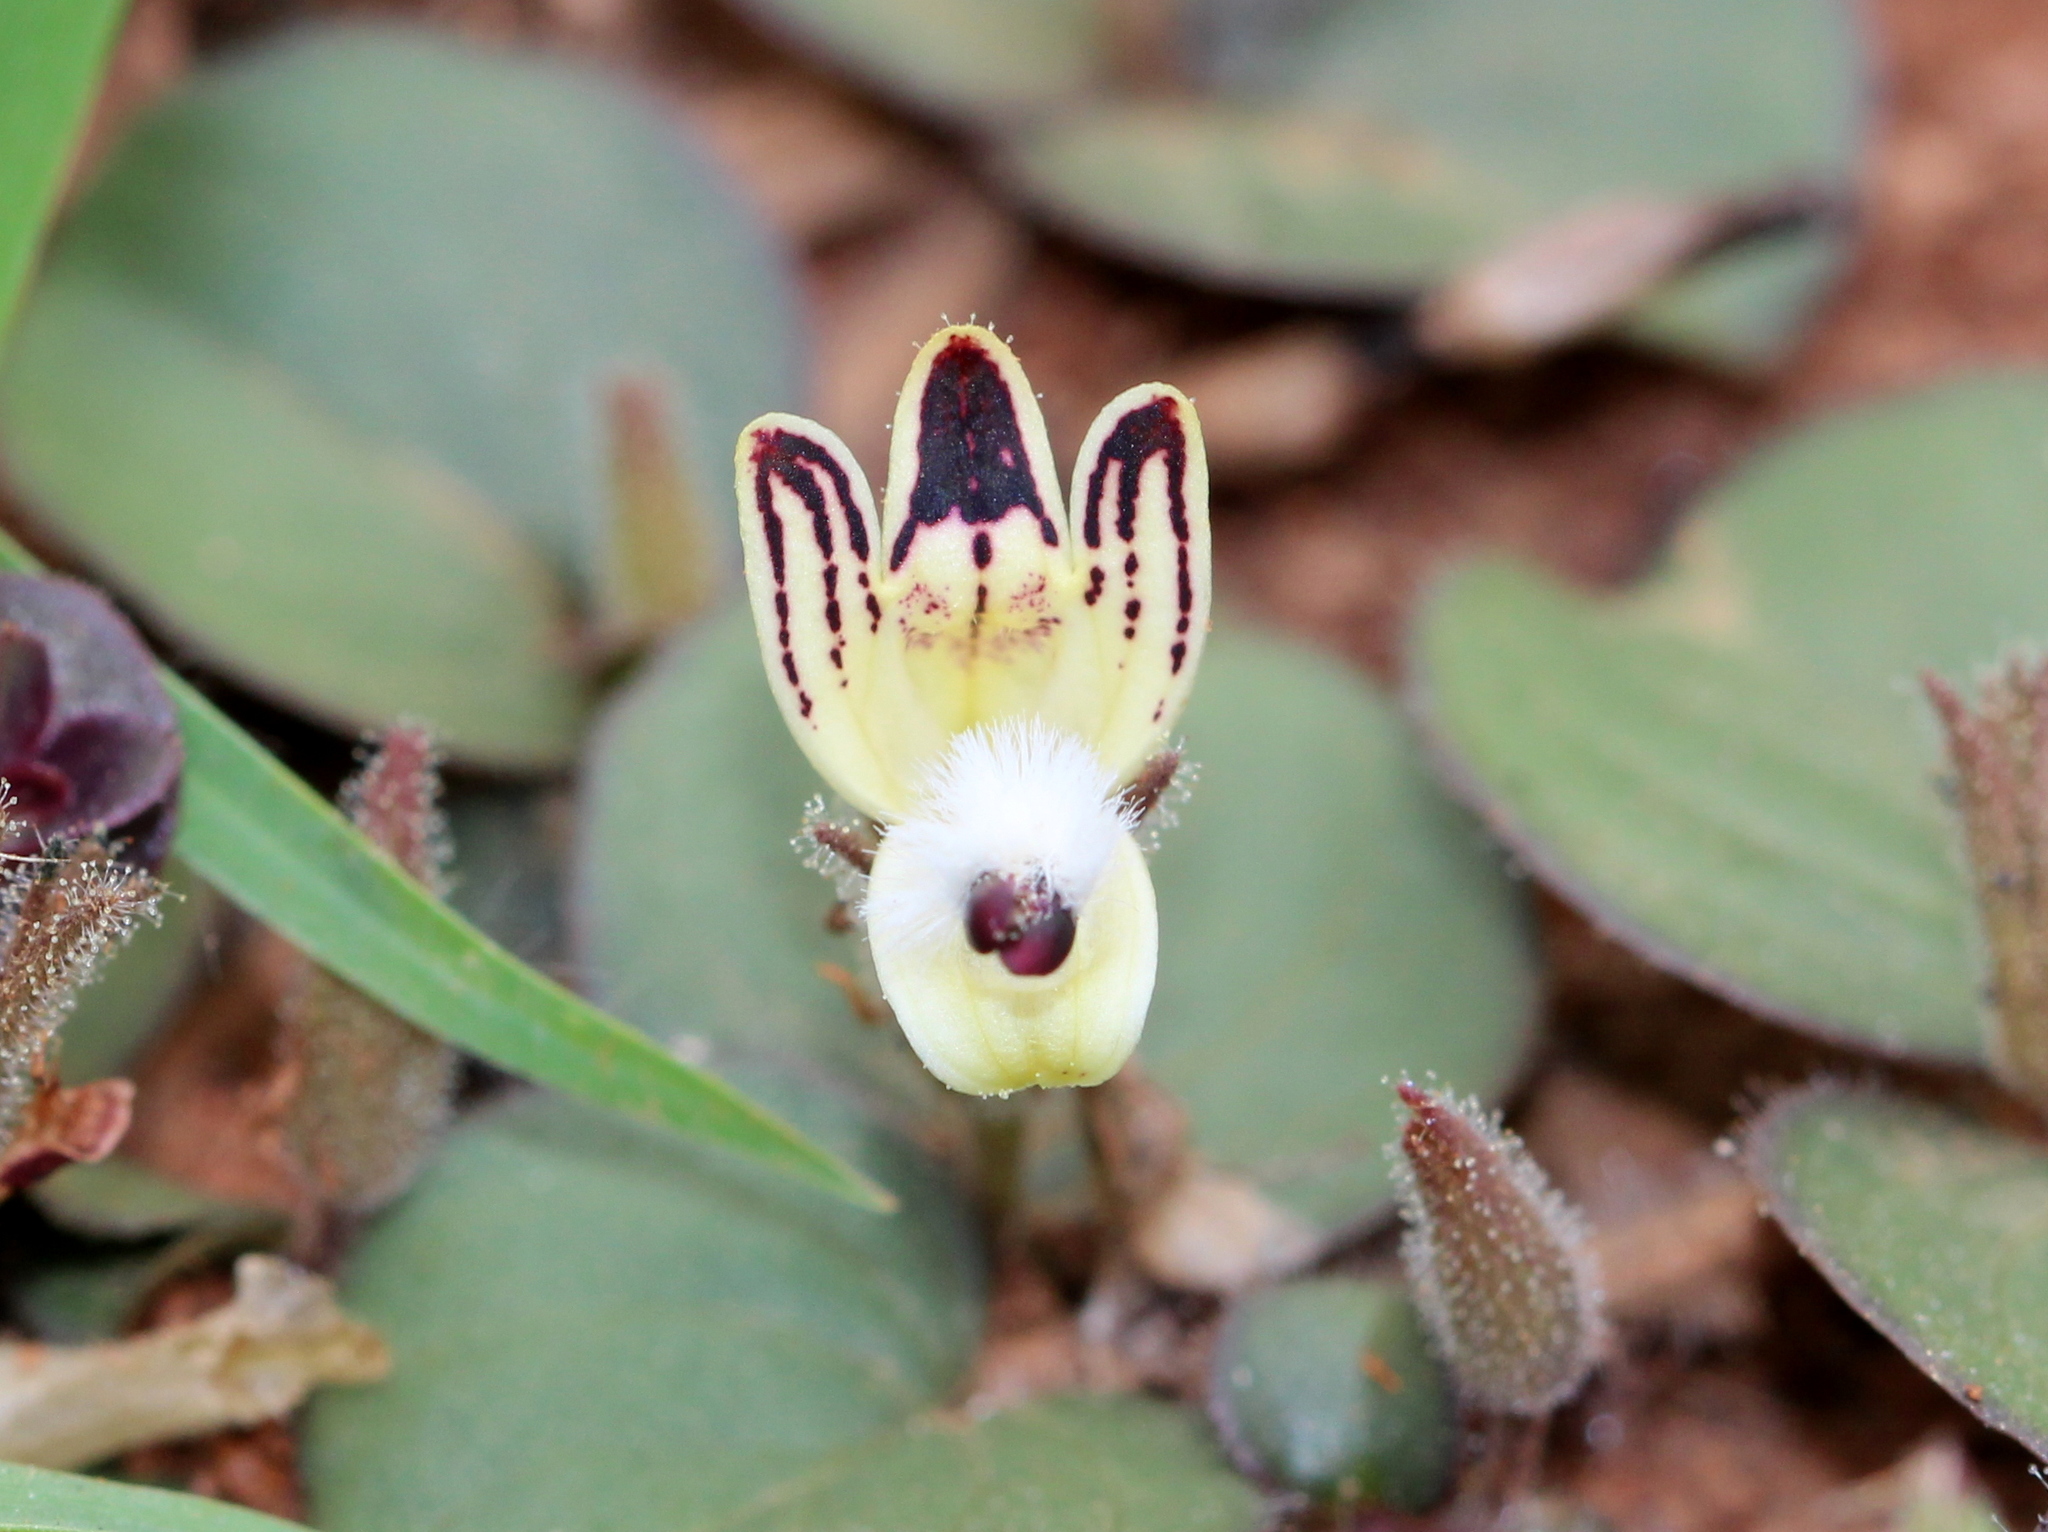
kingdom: Plantae
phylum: Tracheophyta
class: Magnoliopsida
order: Lamiales
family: Acanthaceae
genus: Andrographis
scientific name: Andrographis serpyllifolia
